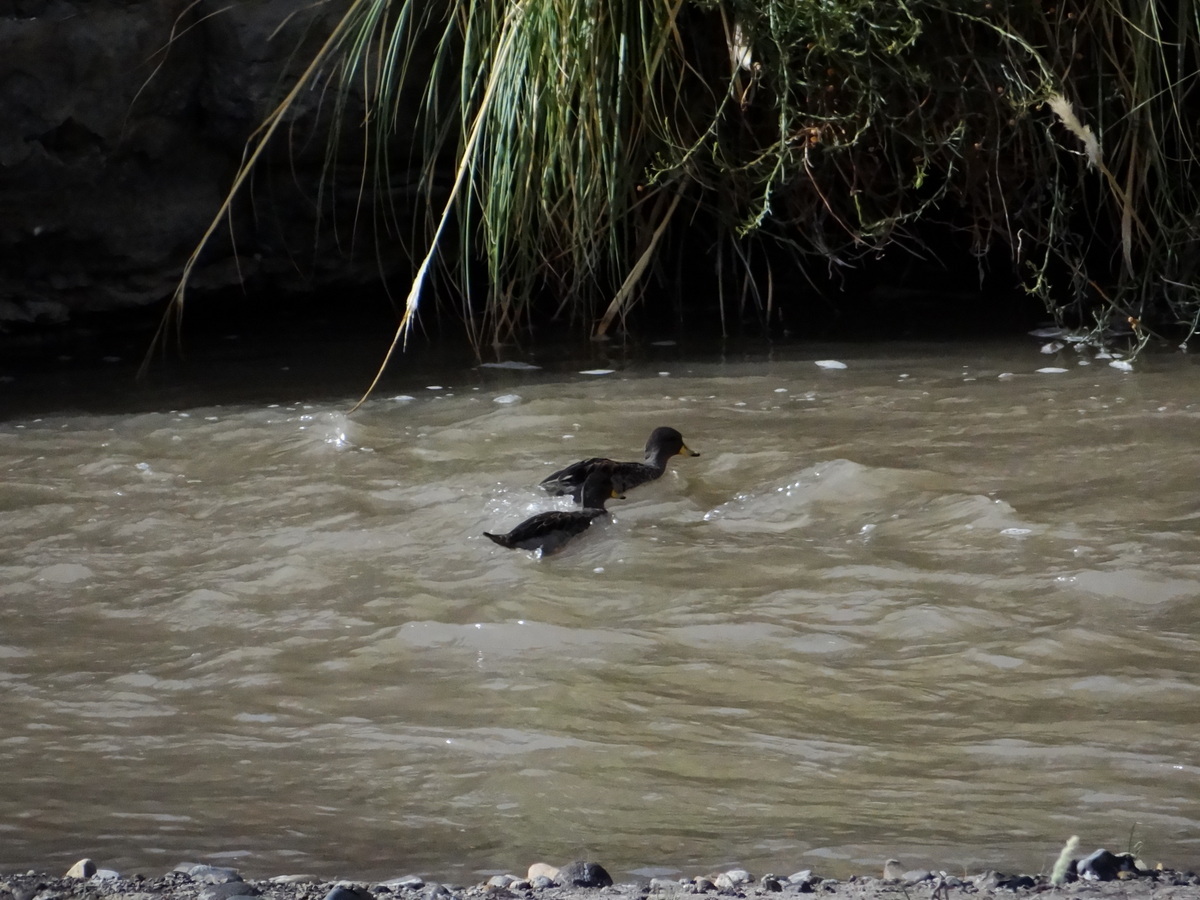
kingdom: Animalia
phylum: Chordata
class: Aves
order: Anseriformes
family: Anatidae
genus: Anas
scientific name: Anas flavirostris
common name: Yellow-billed teal
